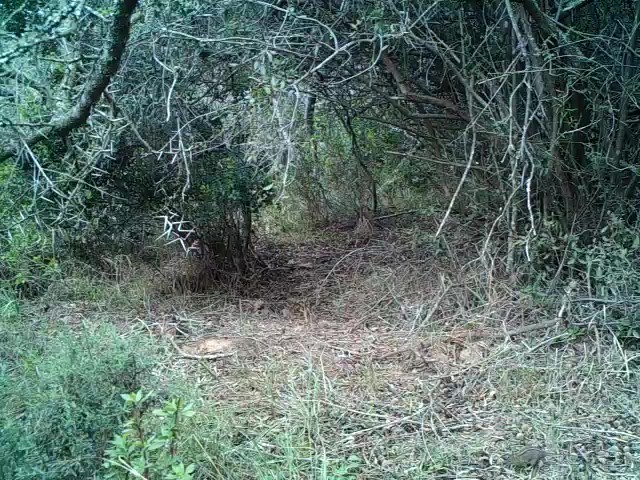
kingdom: Animalia
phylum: Chordata
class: Mammalia
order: Rodentia
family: Muridae
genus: Rhabdomys
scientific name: Rhabdomys pumilio
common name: Xeric four-striped grass rat
